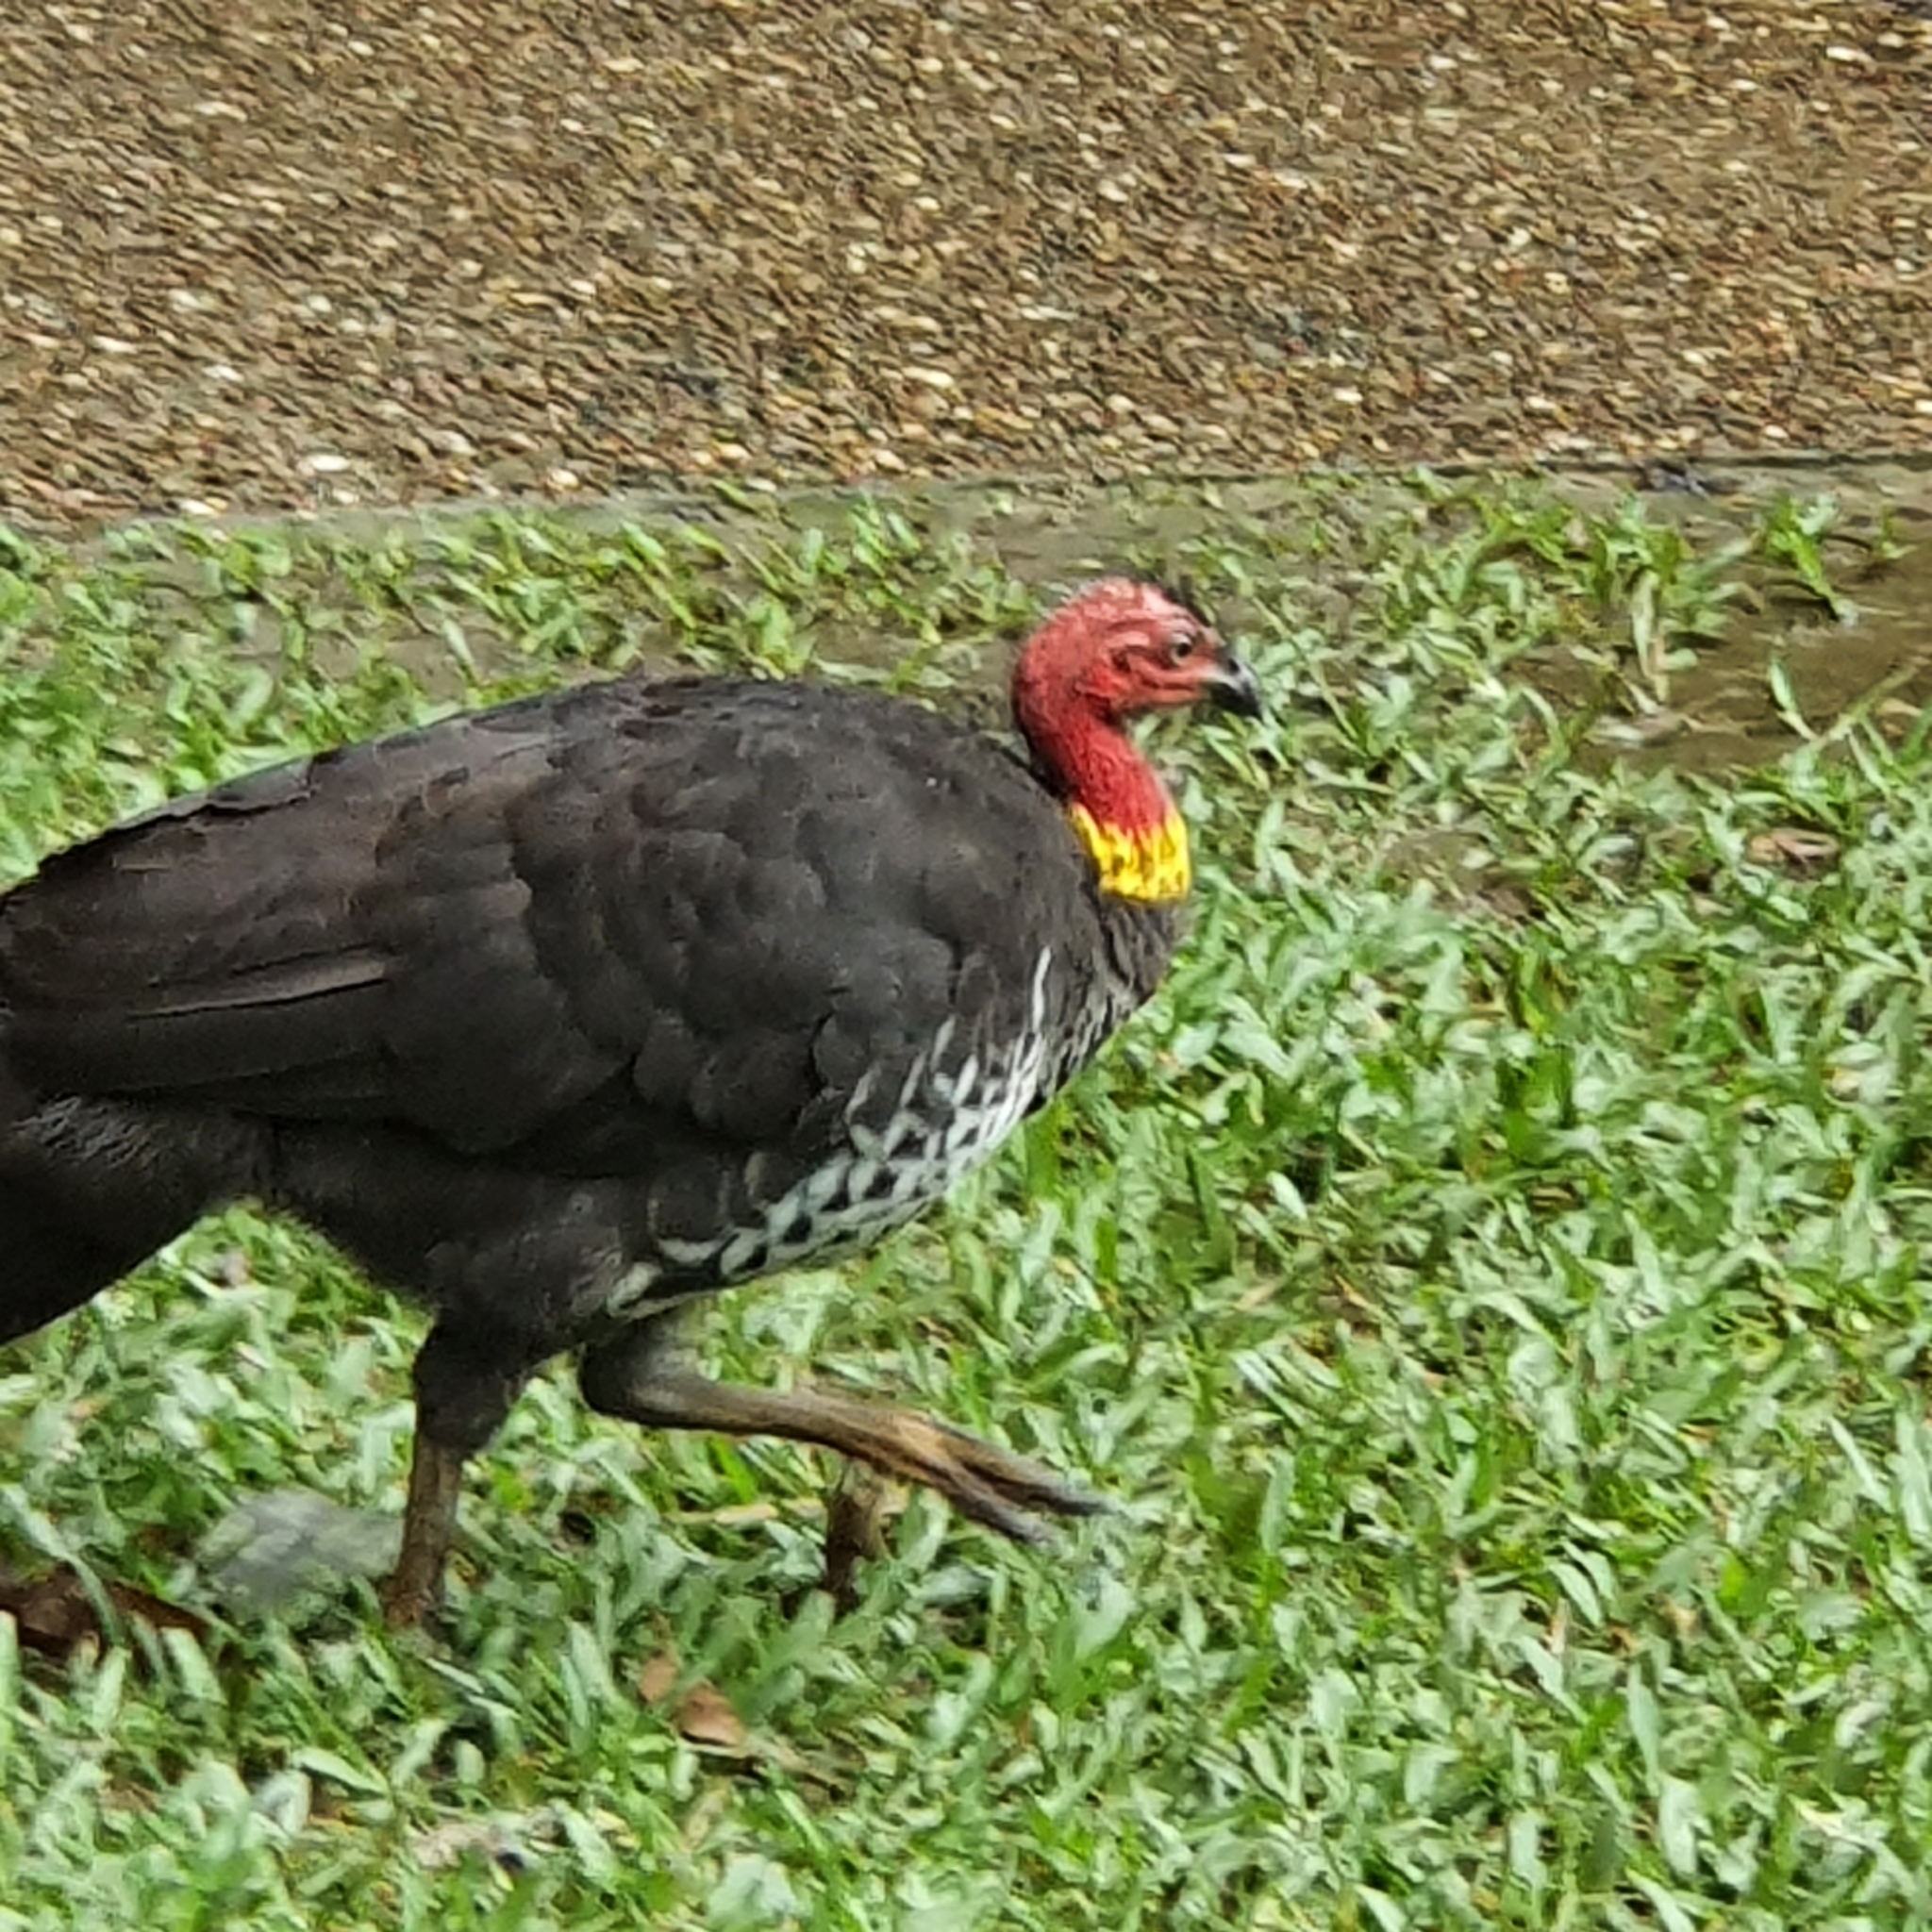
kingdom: Animalia
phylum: Chordata
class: Aves
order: Galliformes
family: Megapodiidae
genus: Alectura
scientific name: Alectura lathami
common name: Australian brushturkey
